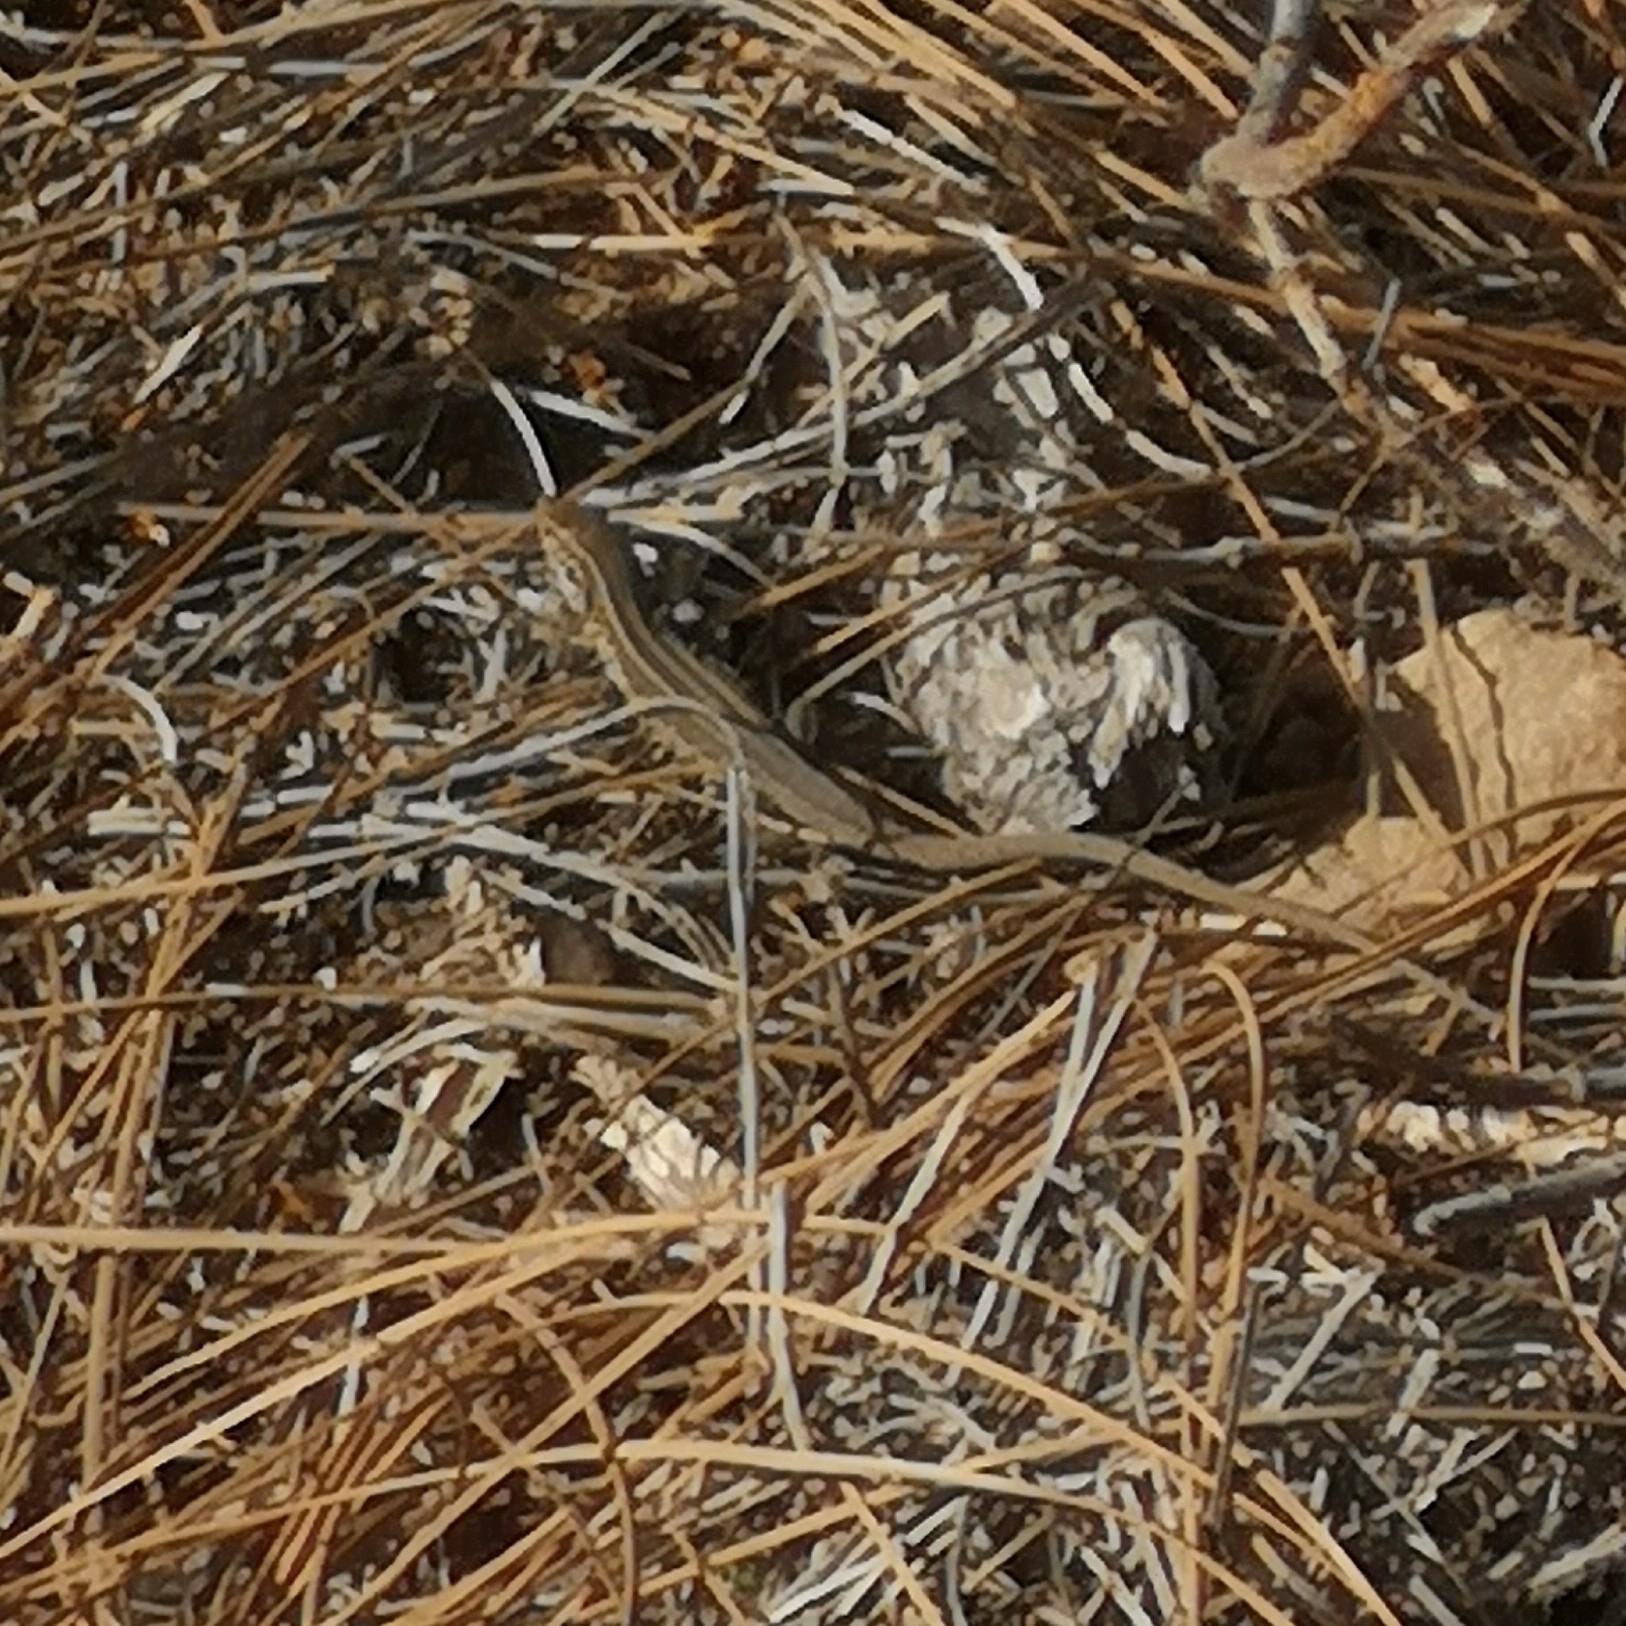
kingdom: Animalia
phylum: Chordata
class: Squamata
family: Lacertidae
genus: Gallotia
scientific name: Gallotia galloti
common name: Gallot's lizard
